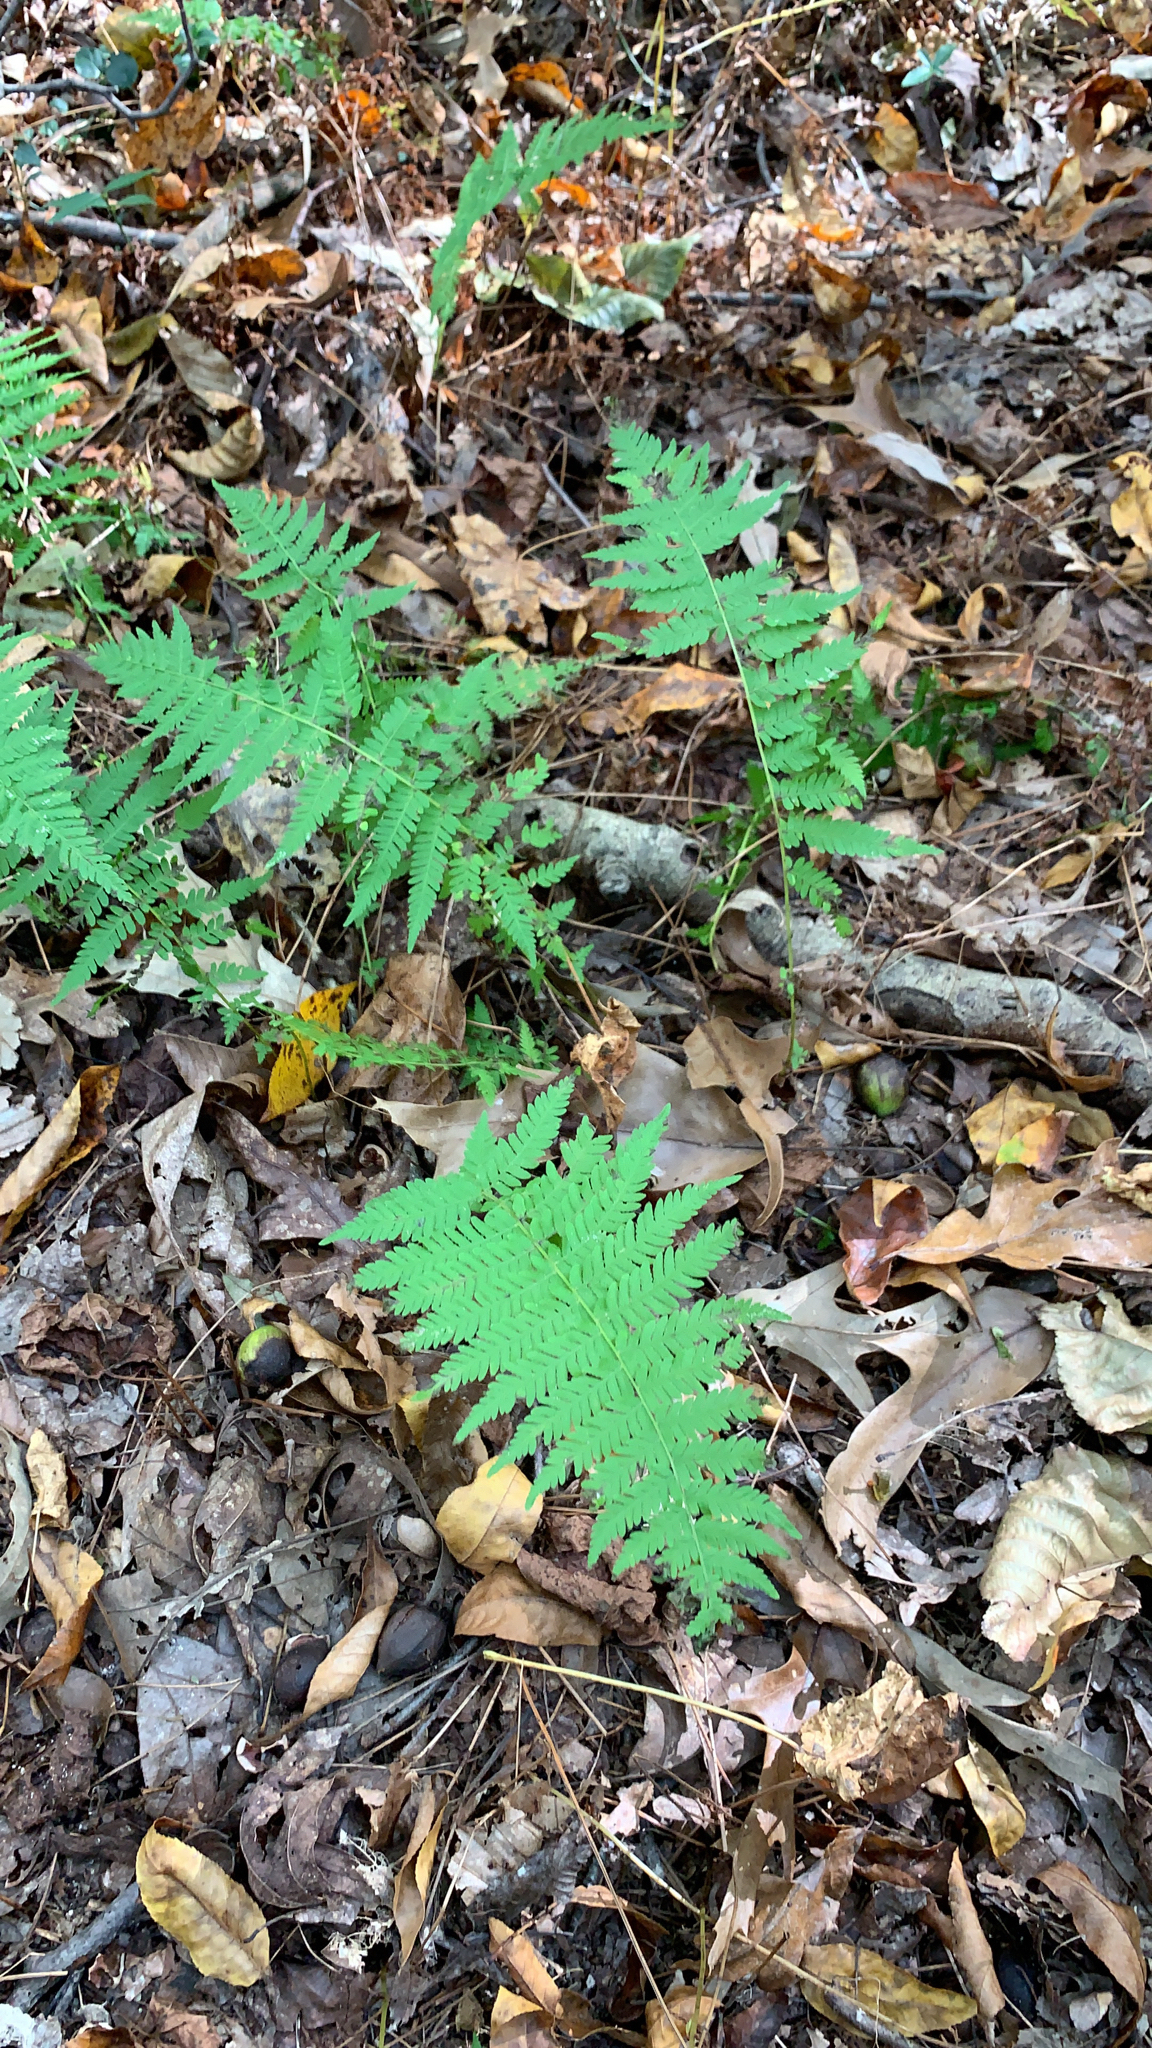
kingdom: Plantae
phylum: Tracheophyta
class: Polypodiopsida
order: Polypodiales
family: Thelypteridaceae
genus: Amauropelta
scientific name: Amauropelta noveboracensis
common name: New york fern
